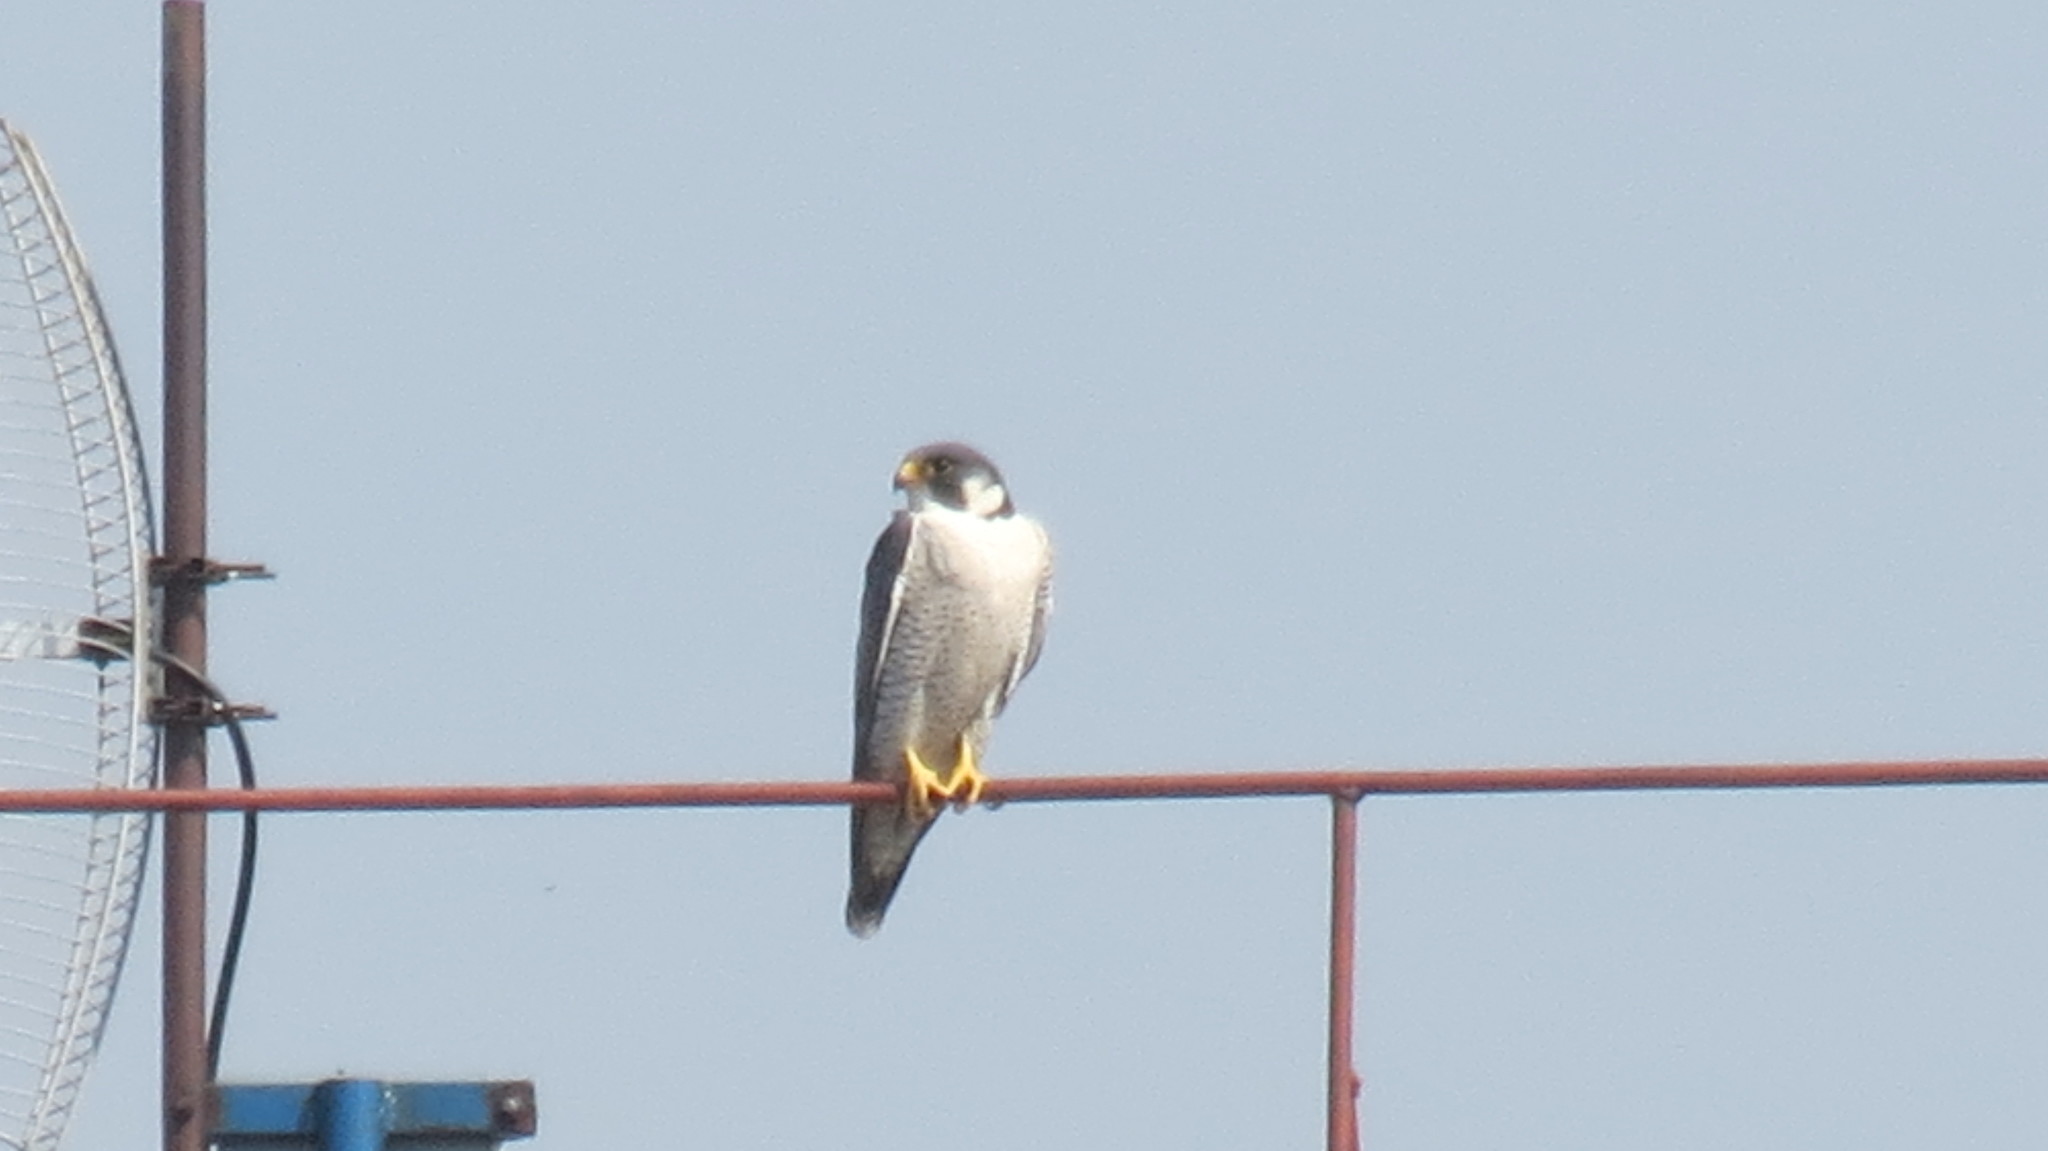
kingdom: Animalia
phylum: Chordata
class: Aves
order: Falconiformes
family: Falconidae
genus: Falco
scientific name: Falco peregrinus
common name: Peregrine falcon
